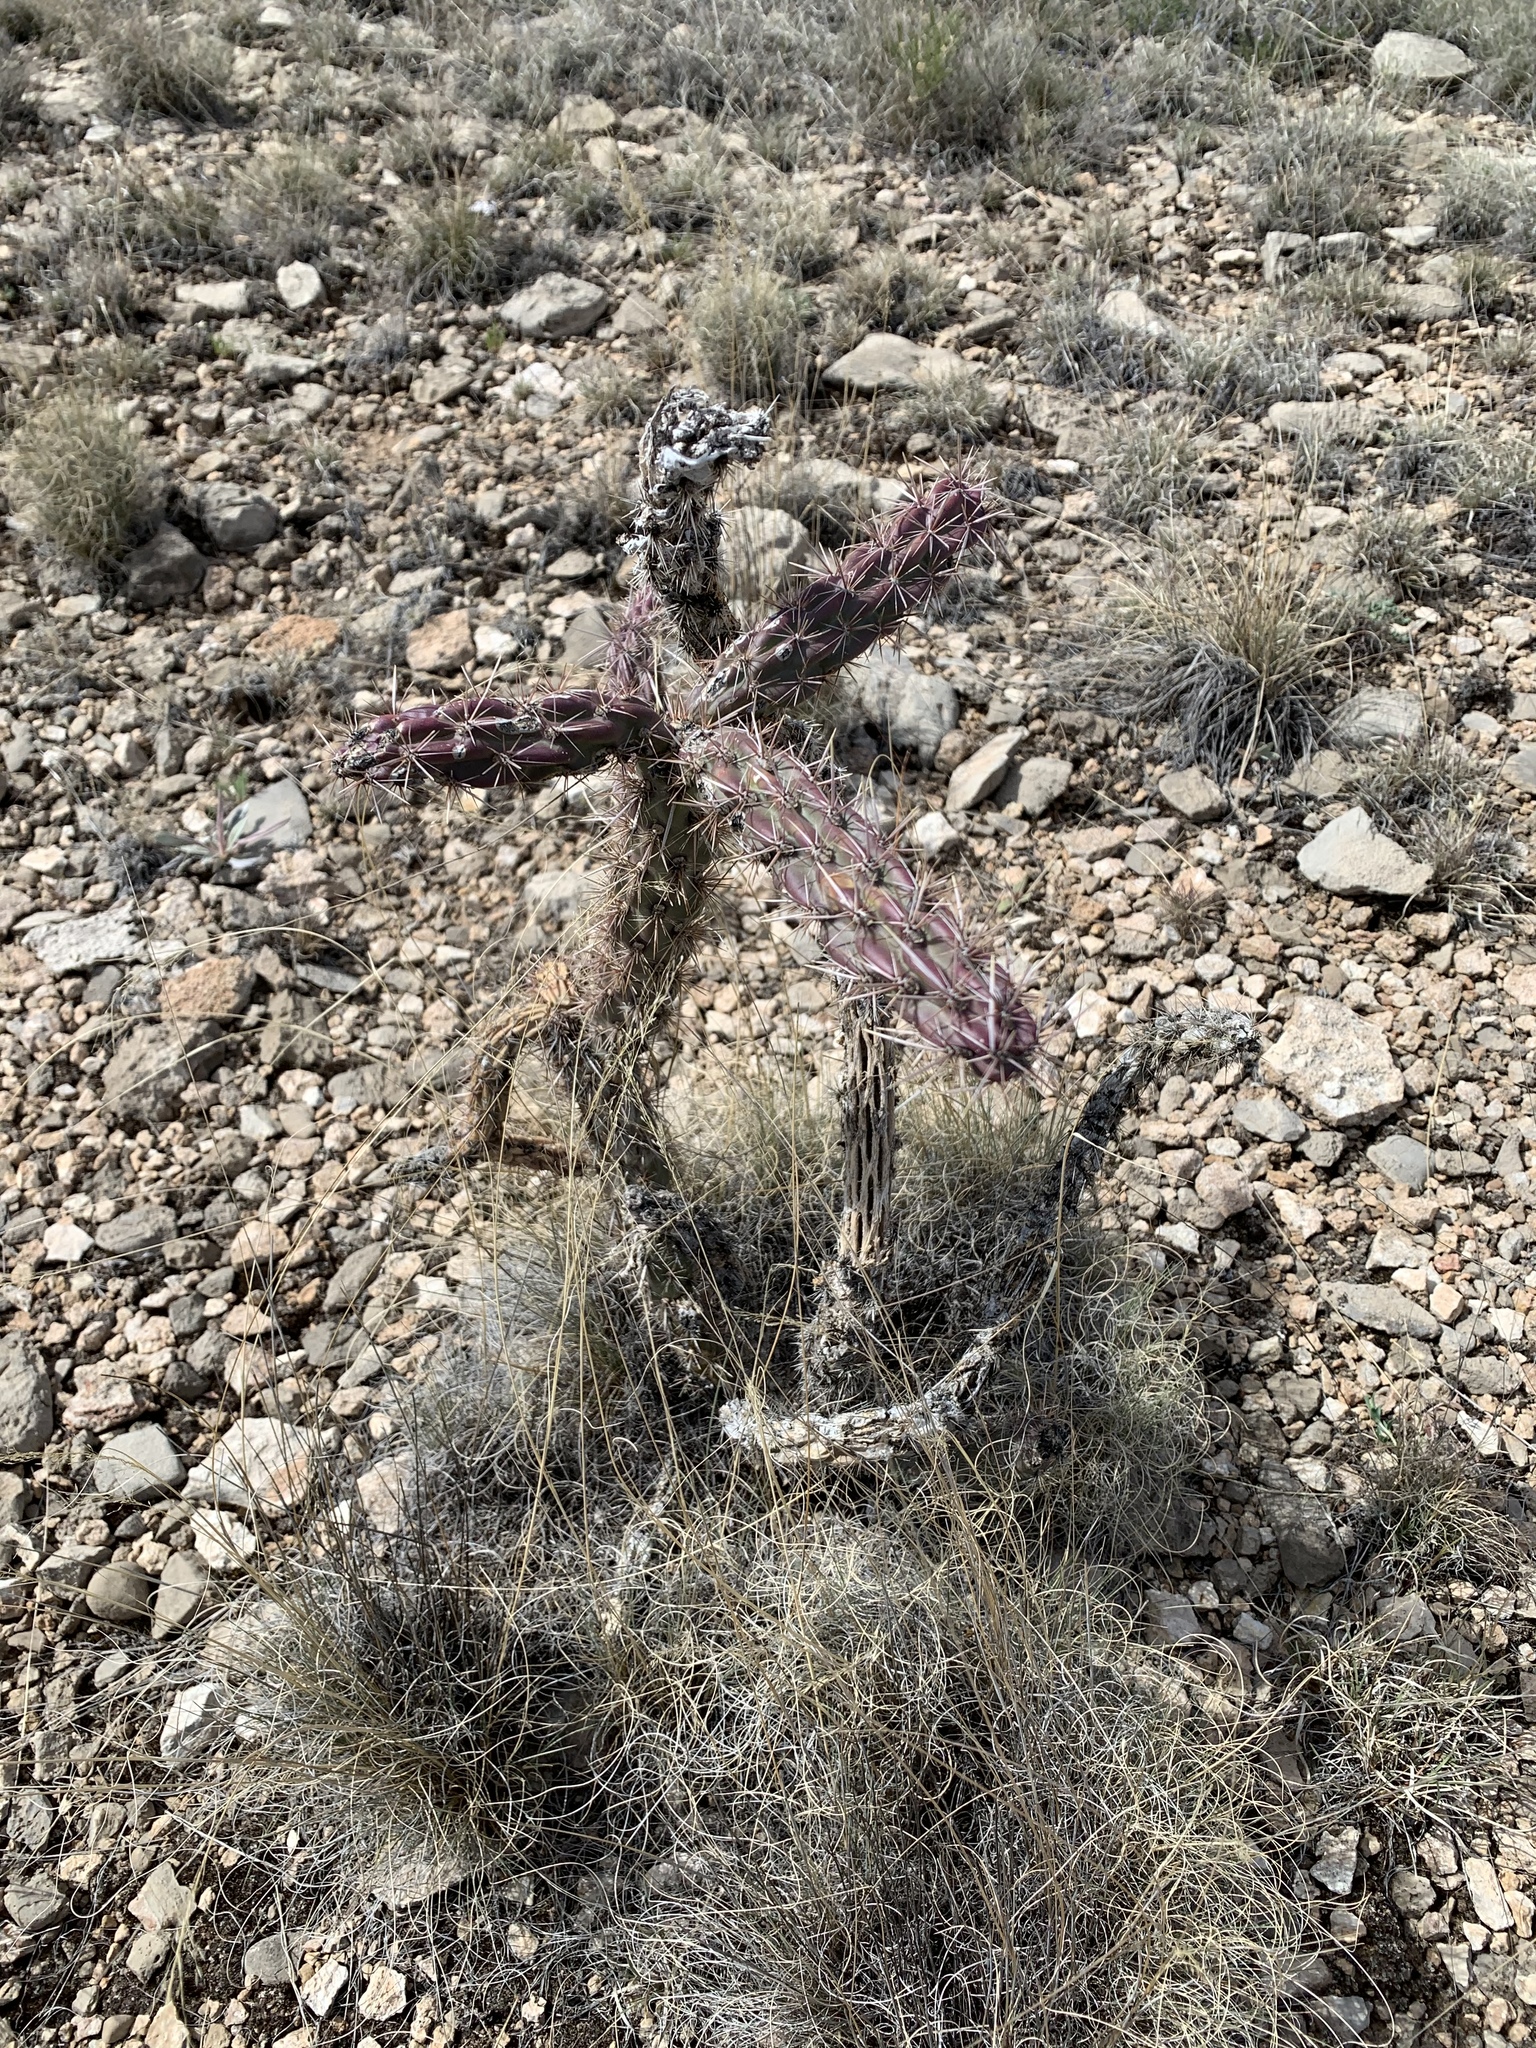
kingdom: Plantae
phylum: Tracheophyta
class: Magnoliopsida
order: Caryophyllales
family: Cactaceae
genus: Cylindropuntia
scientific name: Cylindropuntia imbricata
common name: Candelabrum cactus
